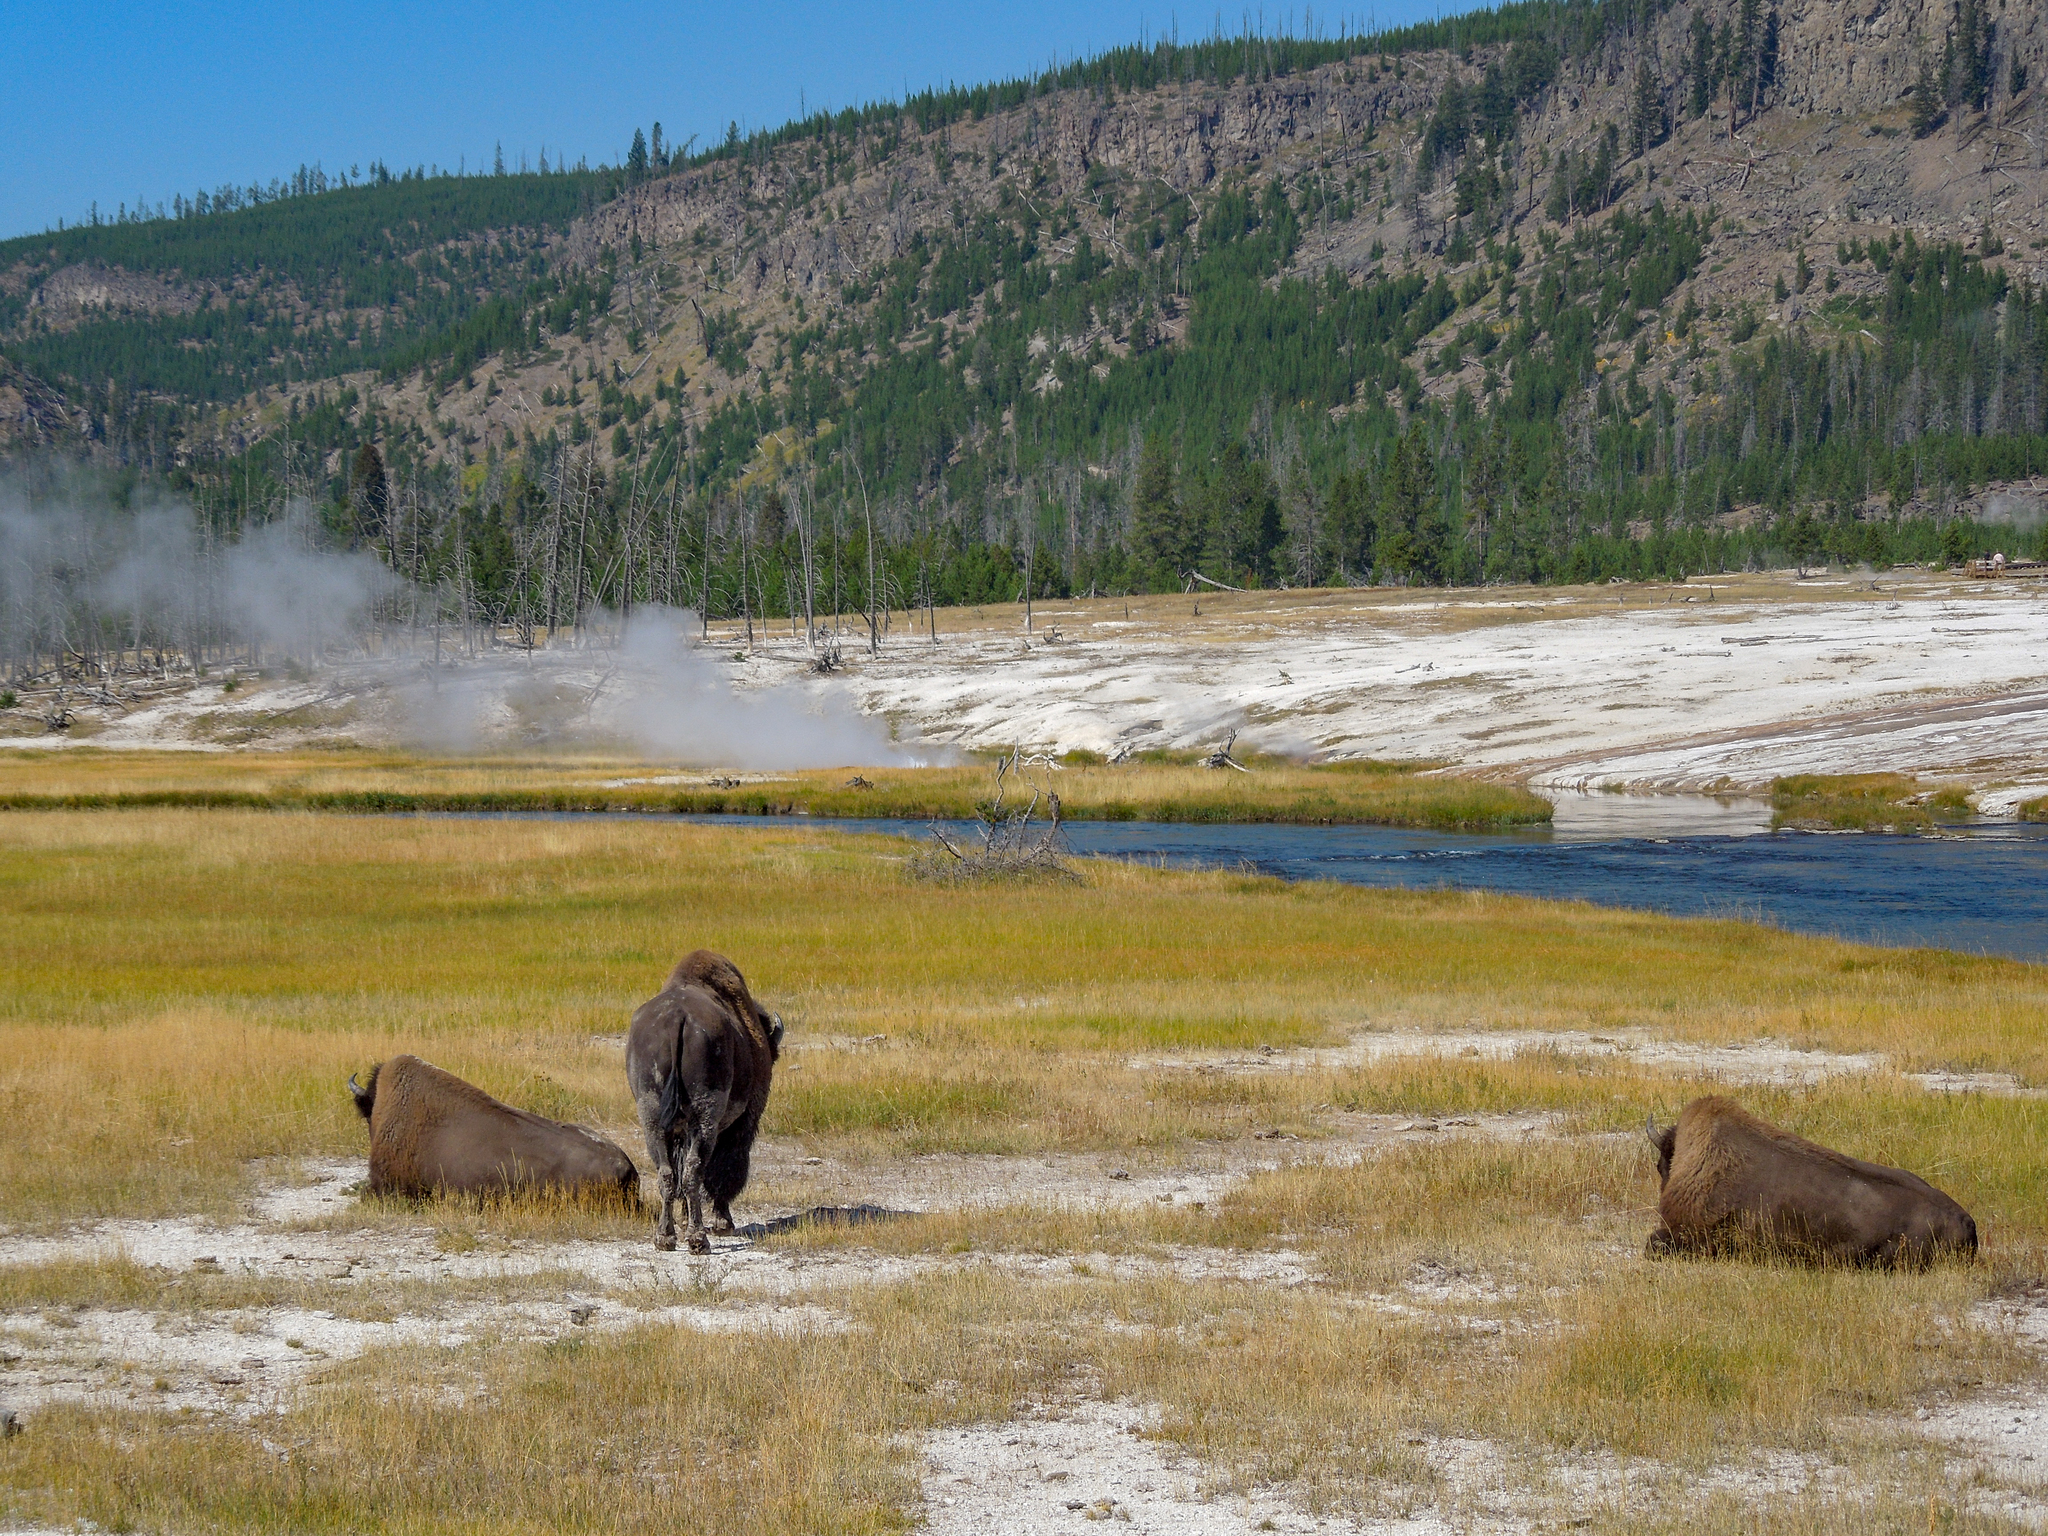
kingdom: Animalia
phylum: Chordata
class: Mammalia
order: Artiodactyla
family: Bovidae
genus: Bison
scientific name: Bison bison
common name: American bison
